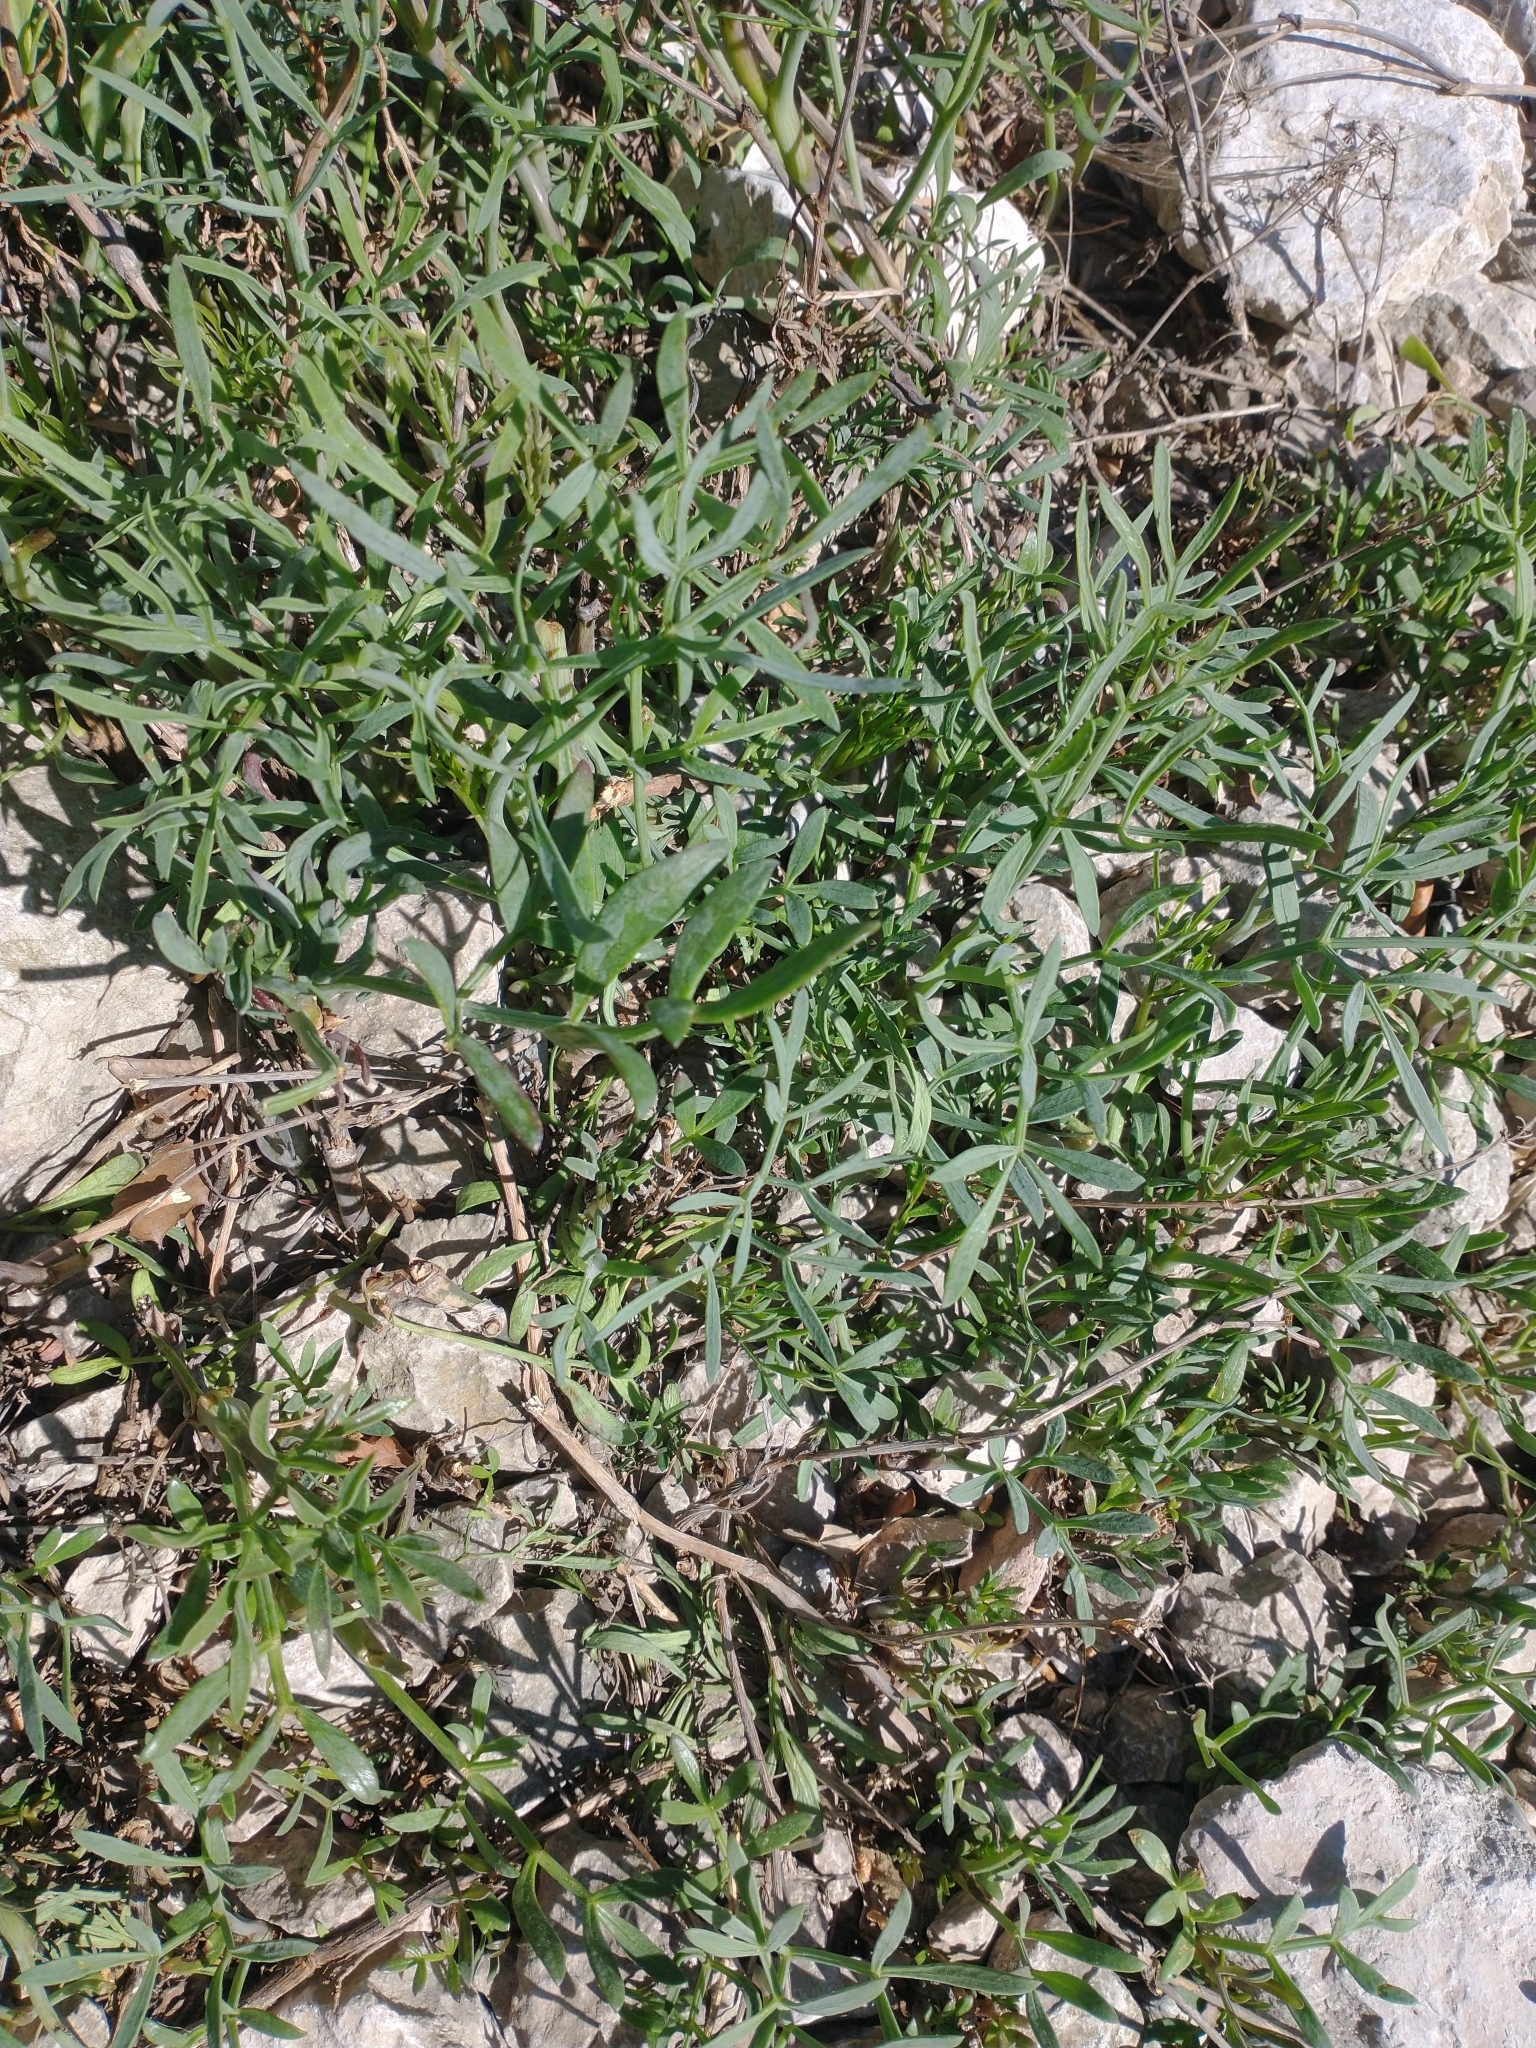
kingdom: Plantae
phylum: Tracheophyta
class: Magnoliopsida
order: Apiales
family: Apiaceae
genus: Crithmum
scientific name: Crithmum maritimum
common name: Rock samphire
